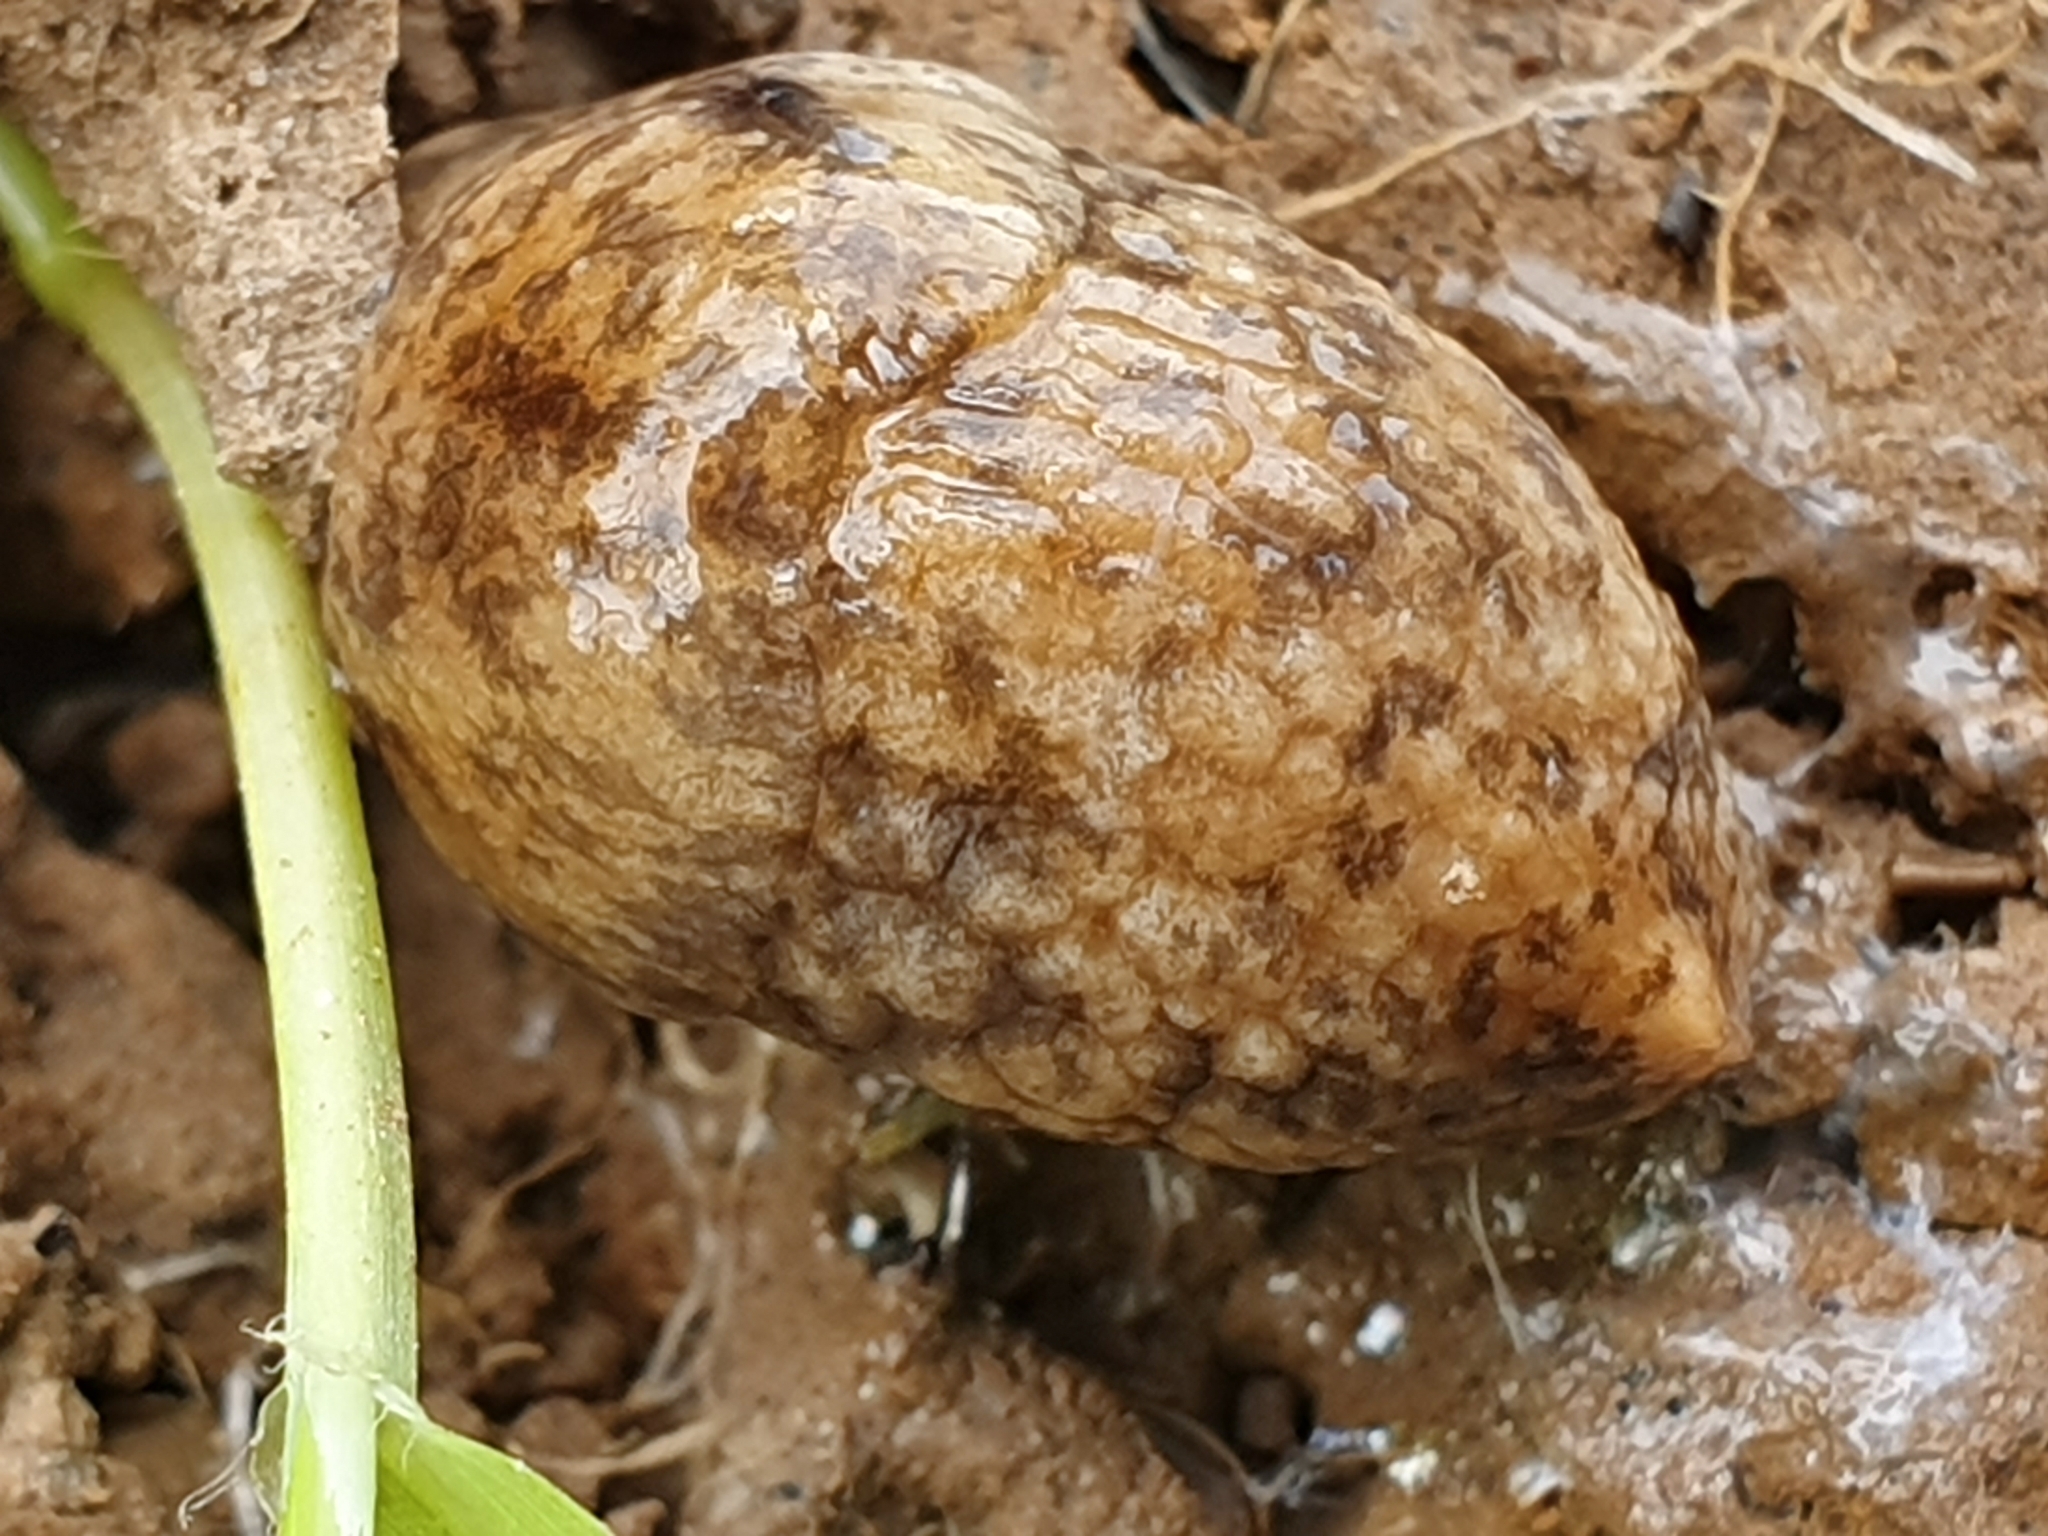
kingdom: Animalia
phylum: Mollusca
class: Gastropoda
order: Stylommatophora
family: Agriolimacidae
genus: Deroceras
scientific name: Deroceras reticulatum
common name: Gray field slug
